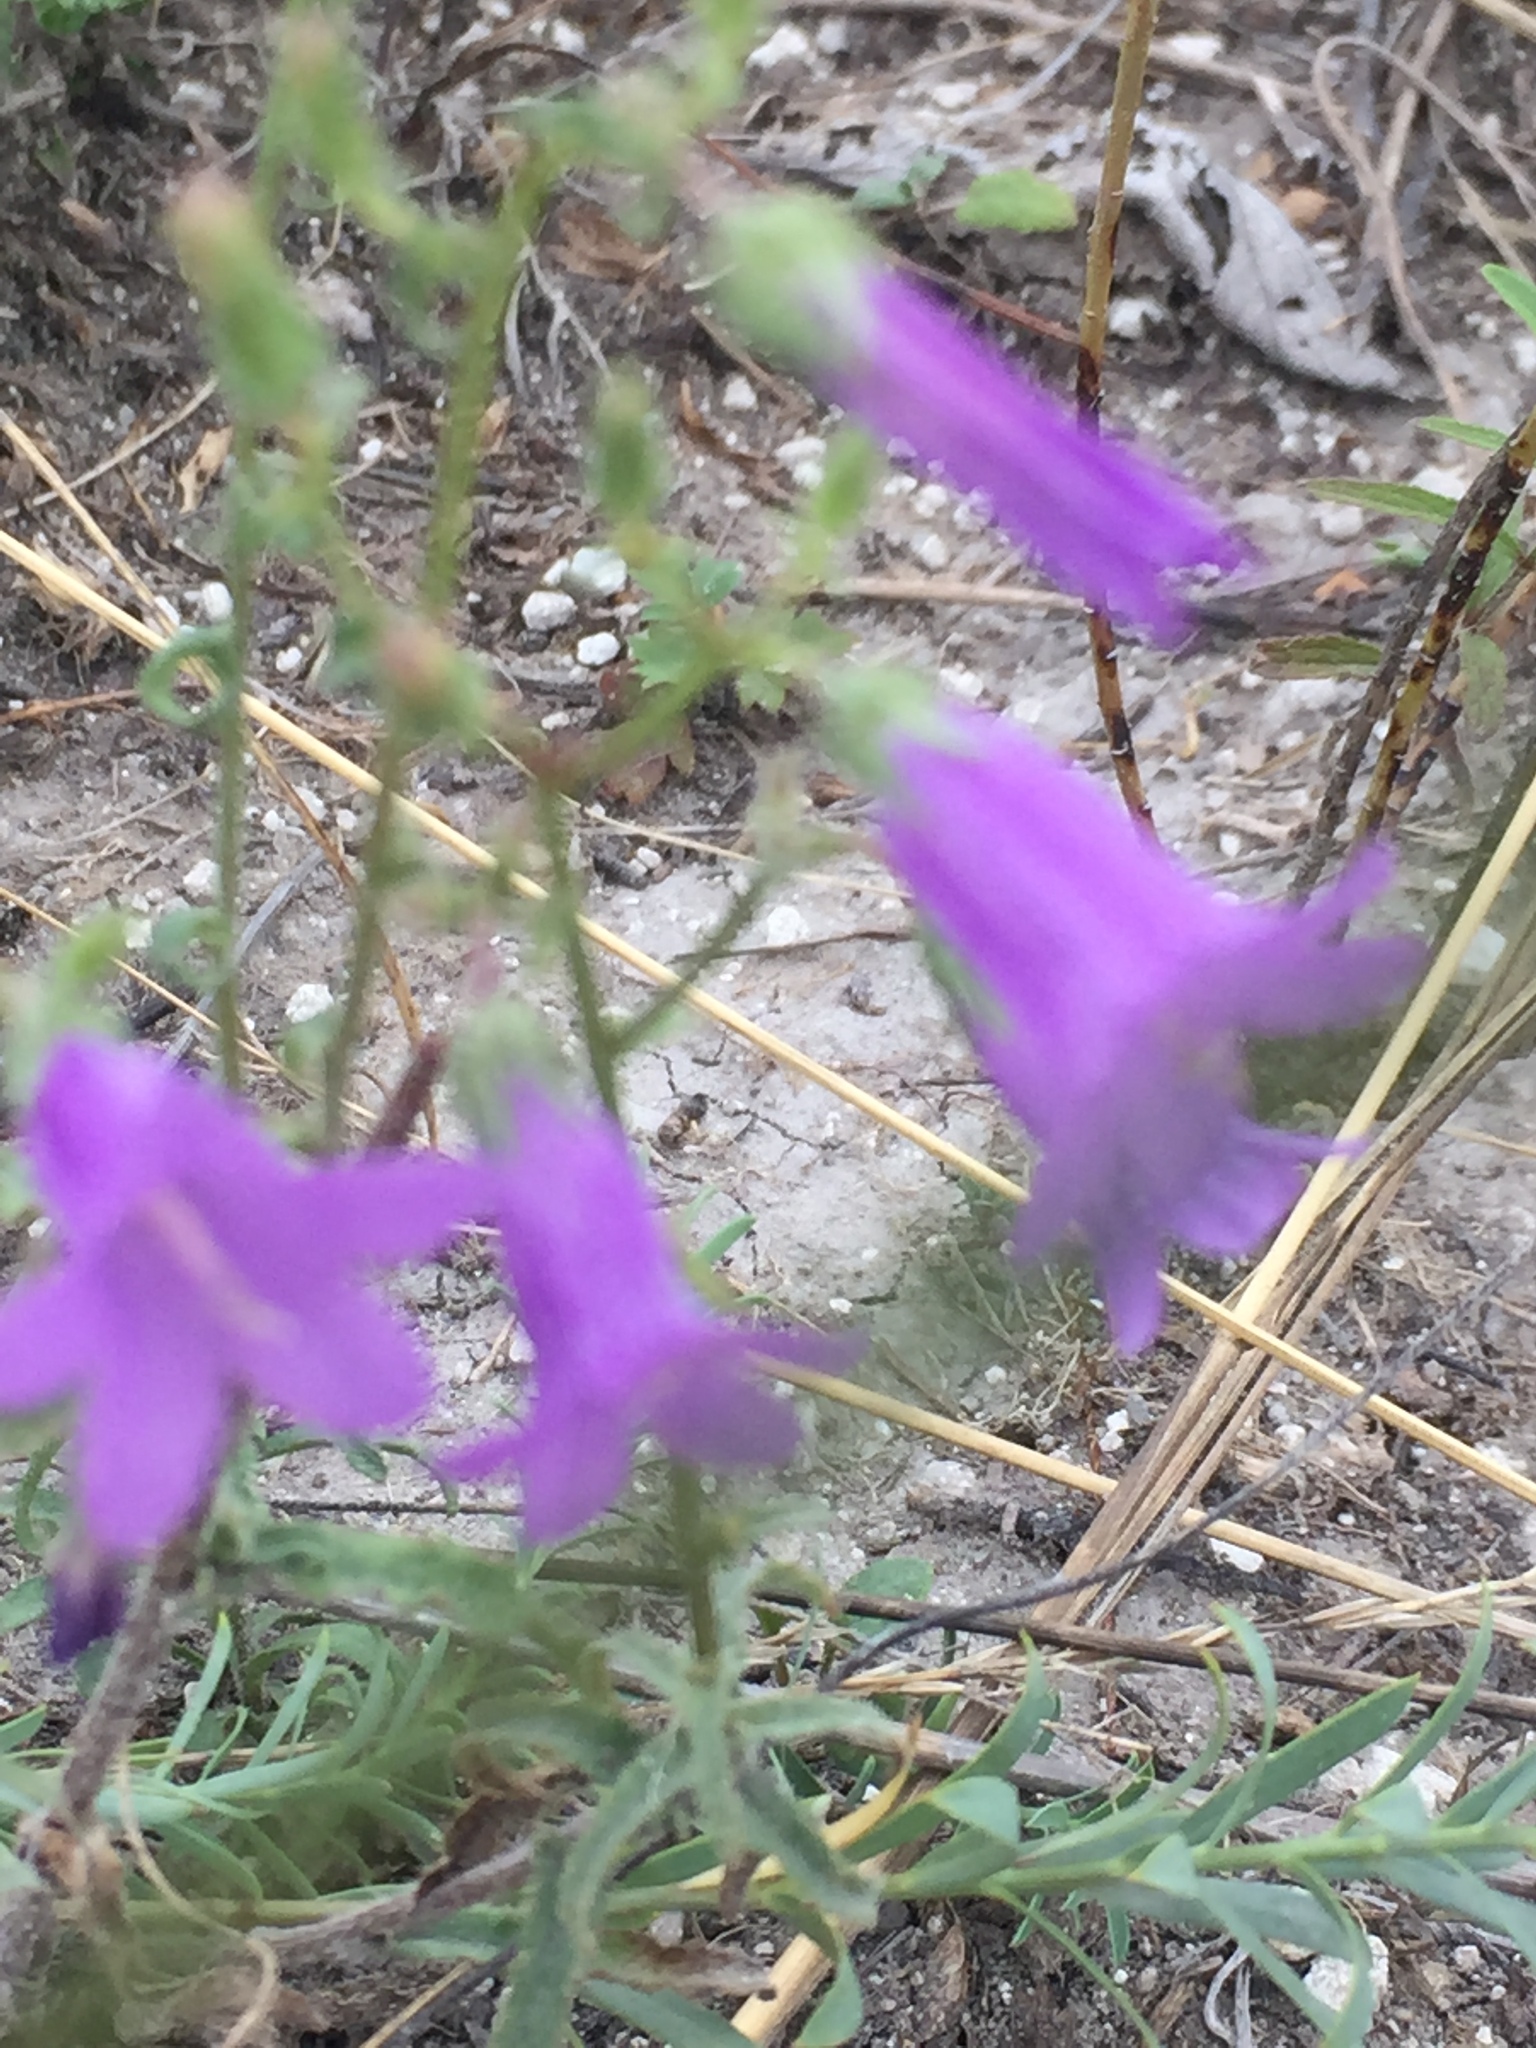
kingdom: Plantae
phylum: Tracheophyta
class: Magnoliopsida
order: Asterales
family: Campanulaceae
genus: Campanula
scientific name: Campanula sibirica
